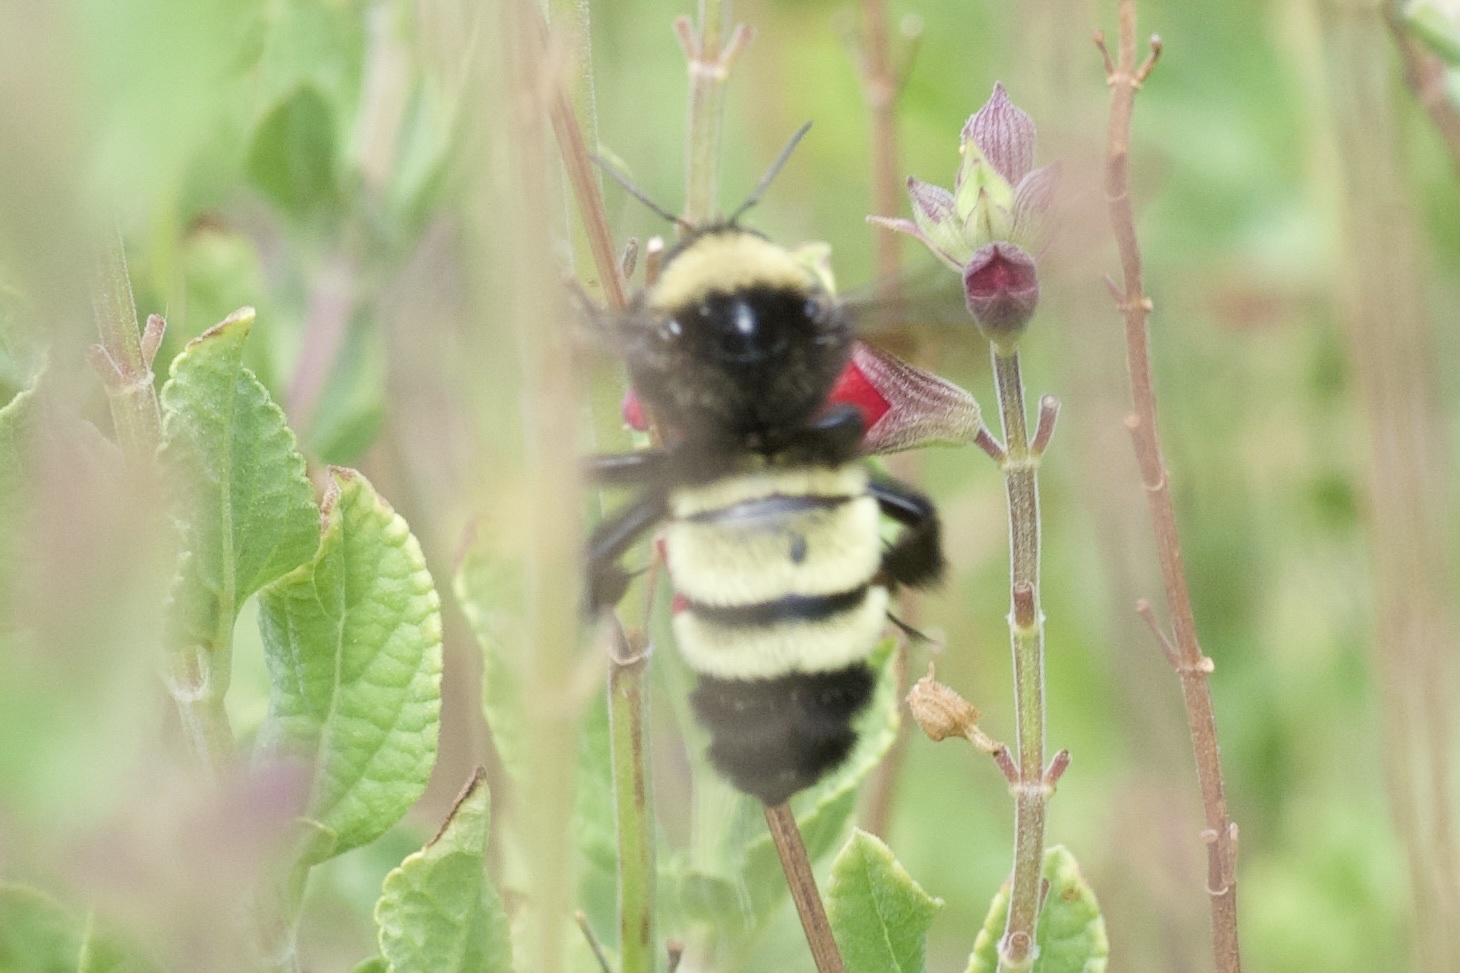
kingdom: Animalia
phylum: Arthropoda
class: Insecta
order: Hymenoptera
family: Apidae
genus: Bombus
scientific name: Bombus pensylvanicus
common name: Bumble bee
